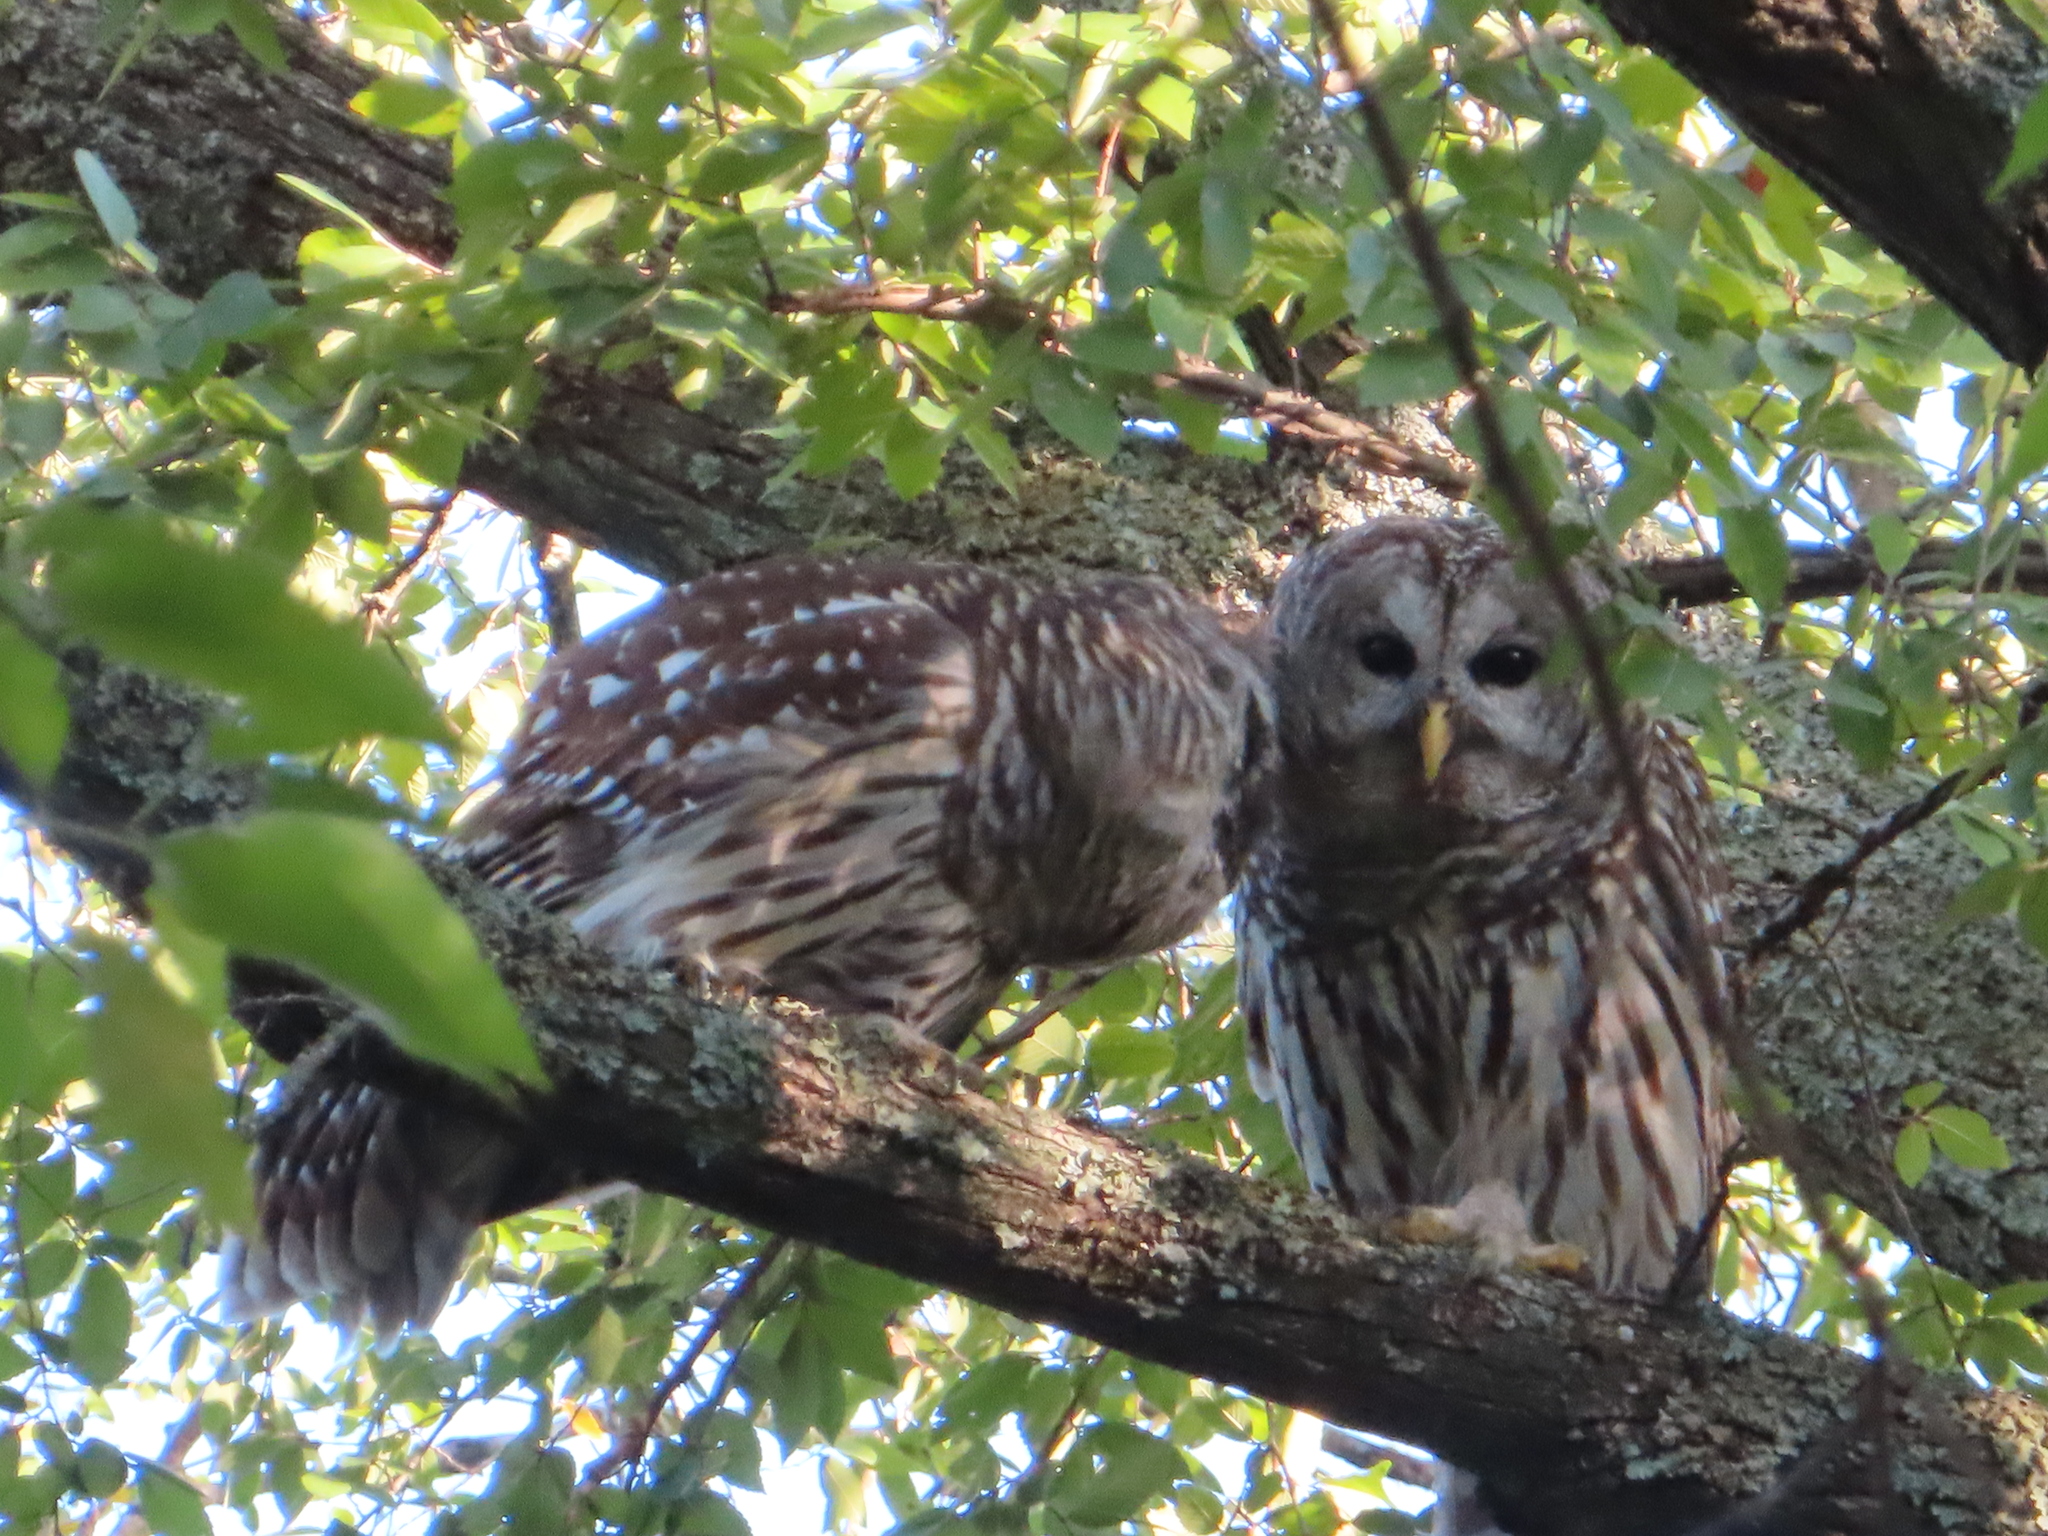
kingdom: Animalia
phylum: Chordata
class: Aves
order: Strigiformes
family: Strigidae
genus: Strix
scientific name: Strix varia
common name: Barred owl
